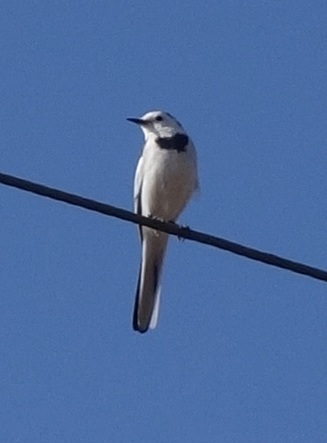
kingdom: Animalia
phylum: Chordata
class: Aves
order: Passeriformes
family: Motacillidae
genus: Motacilla
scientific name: Motacilla alba
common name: White wagtail
